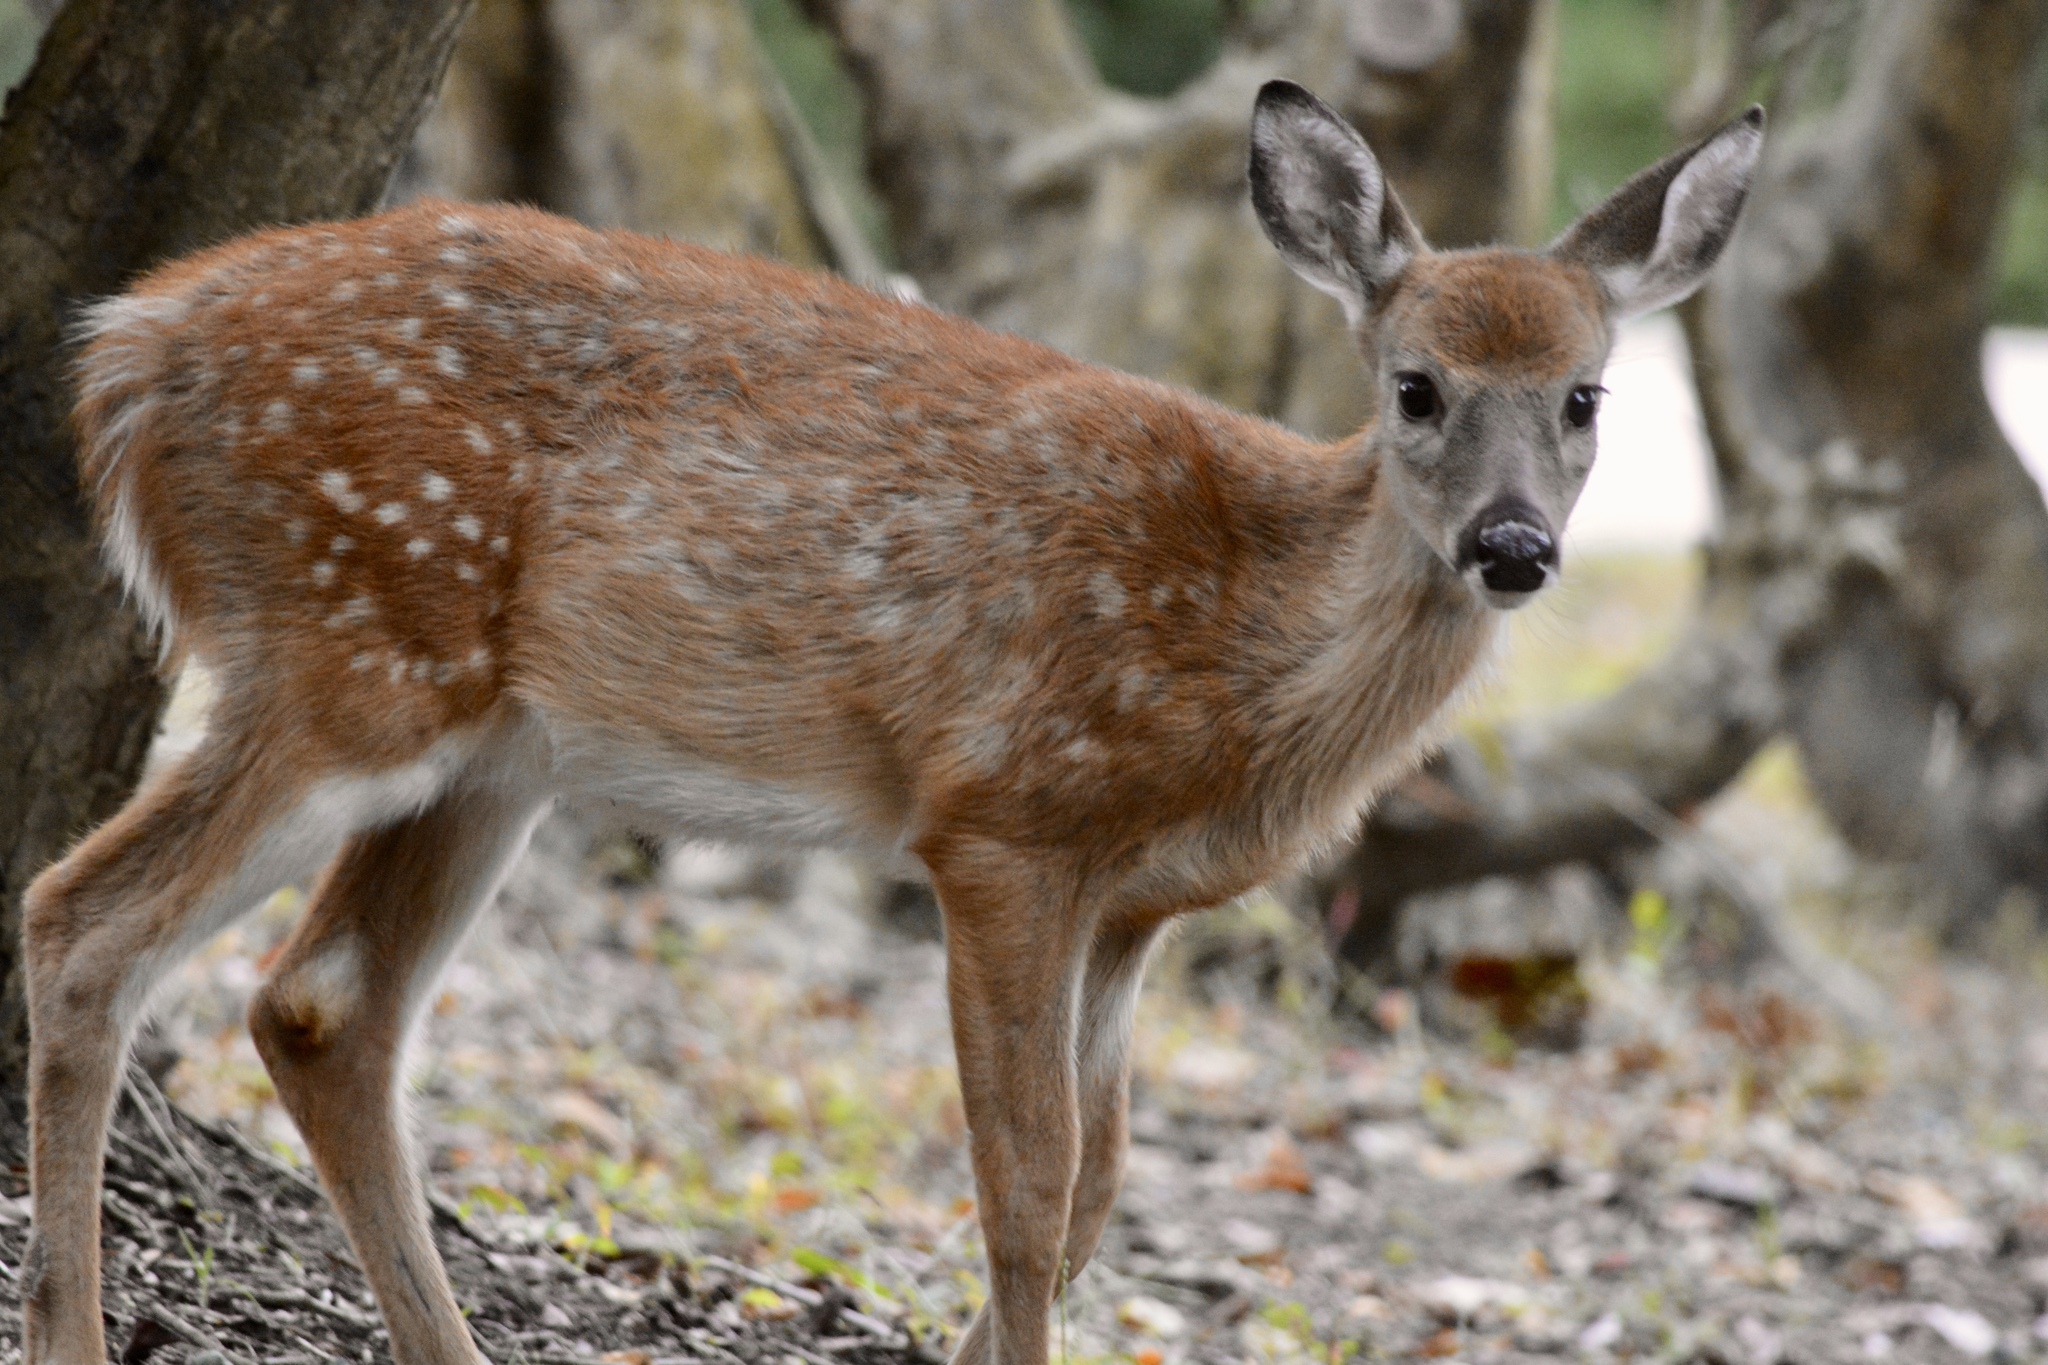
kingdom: Animalia
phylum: Chordata
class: Mammalia
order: Artiodactyla
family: Cervidae
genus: Odocoileus
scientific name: Odocoileus virginianus
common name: White-tailed deer
